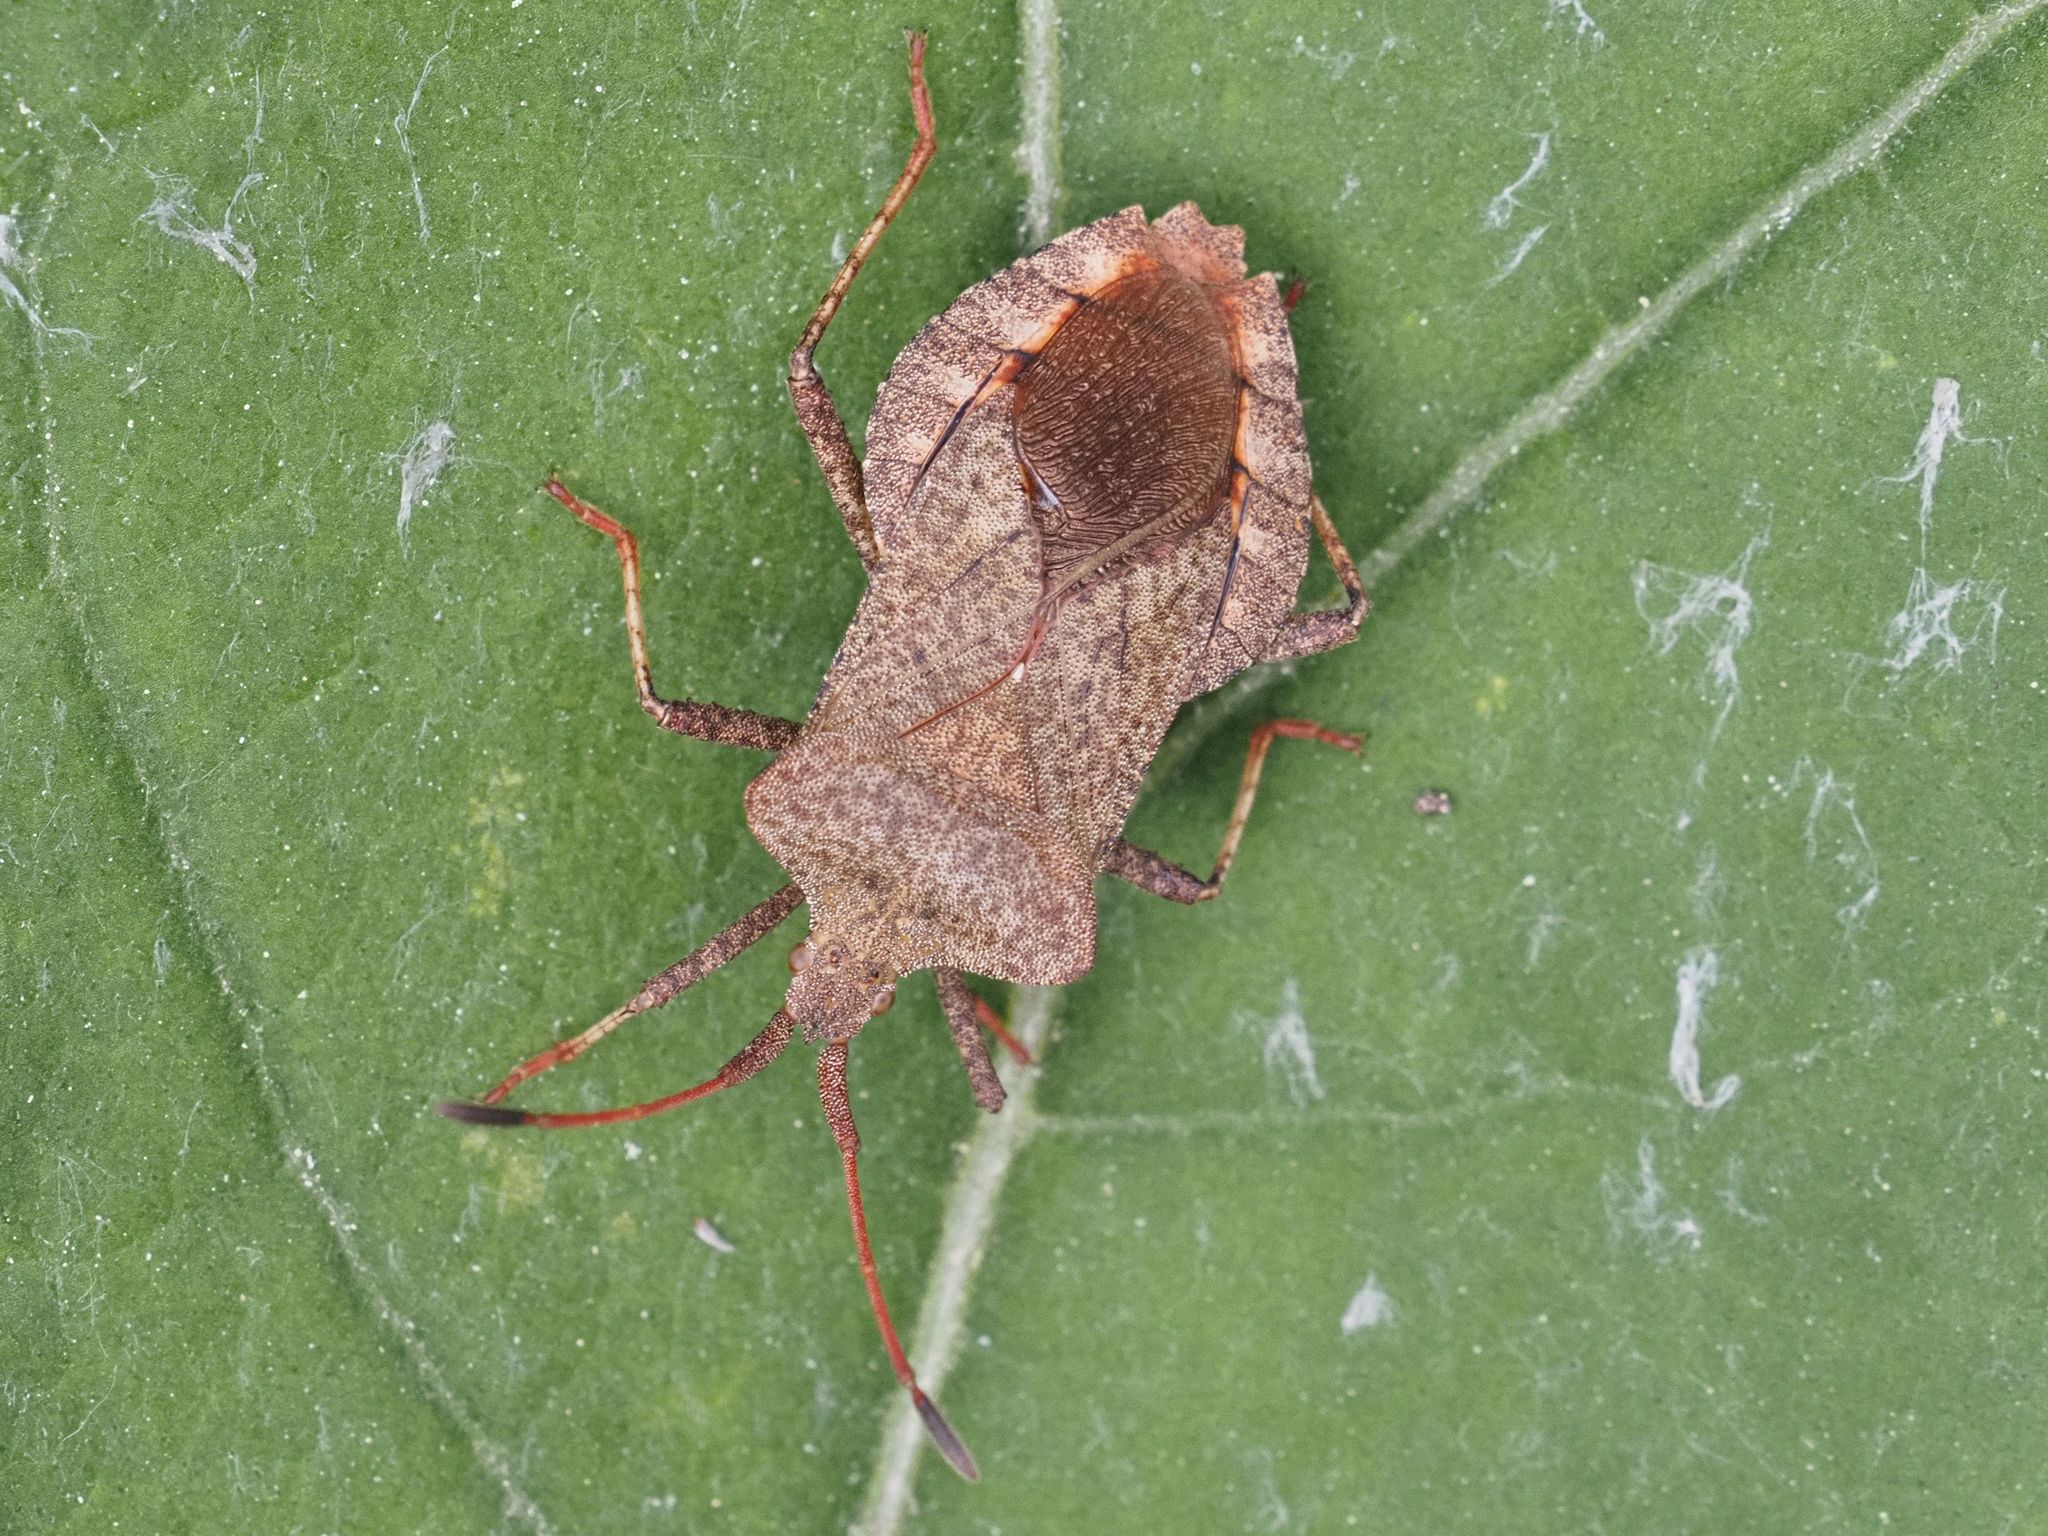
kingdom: Animalia
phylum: Arthropoda
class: Insecta
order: Hemiptera
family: Coreidae
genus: Coreus
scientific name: Coreus marginatus
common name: Dock bug
